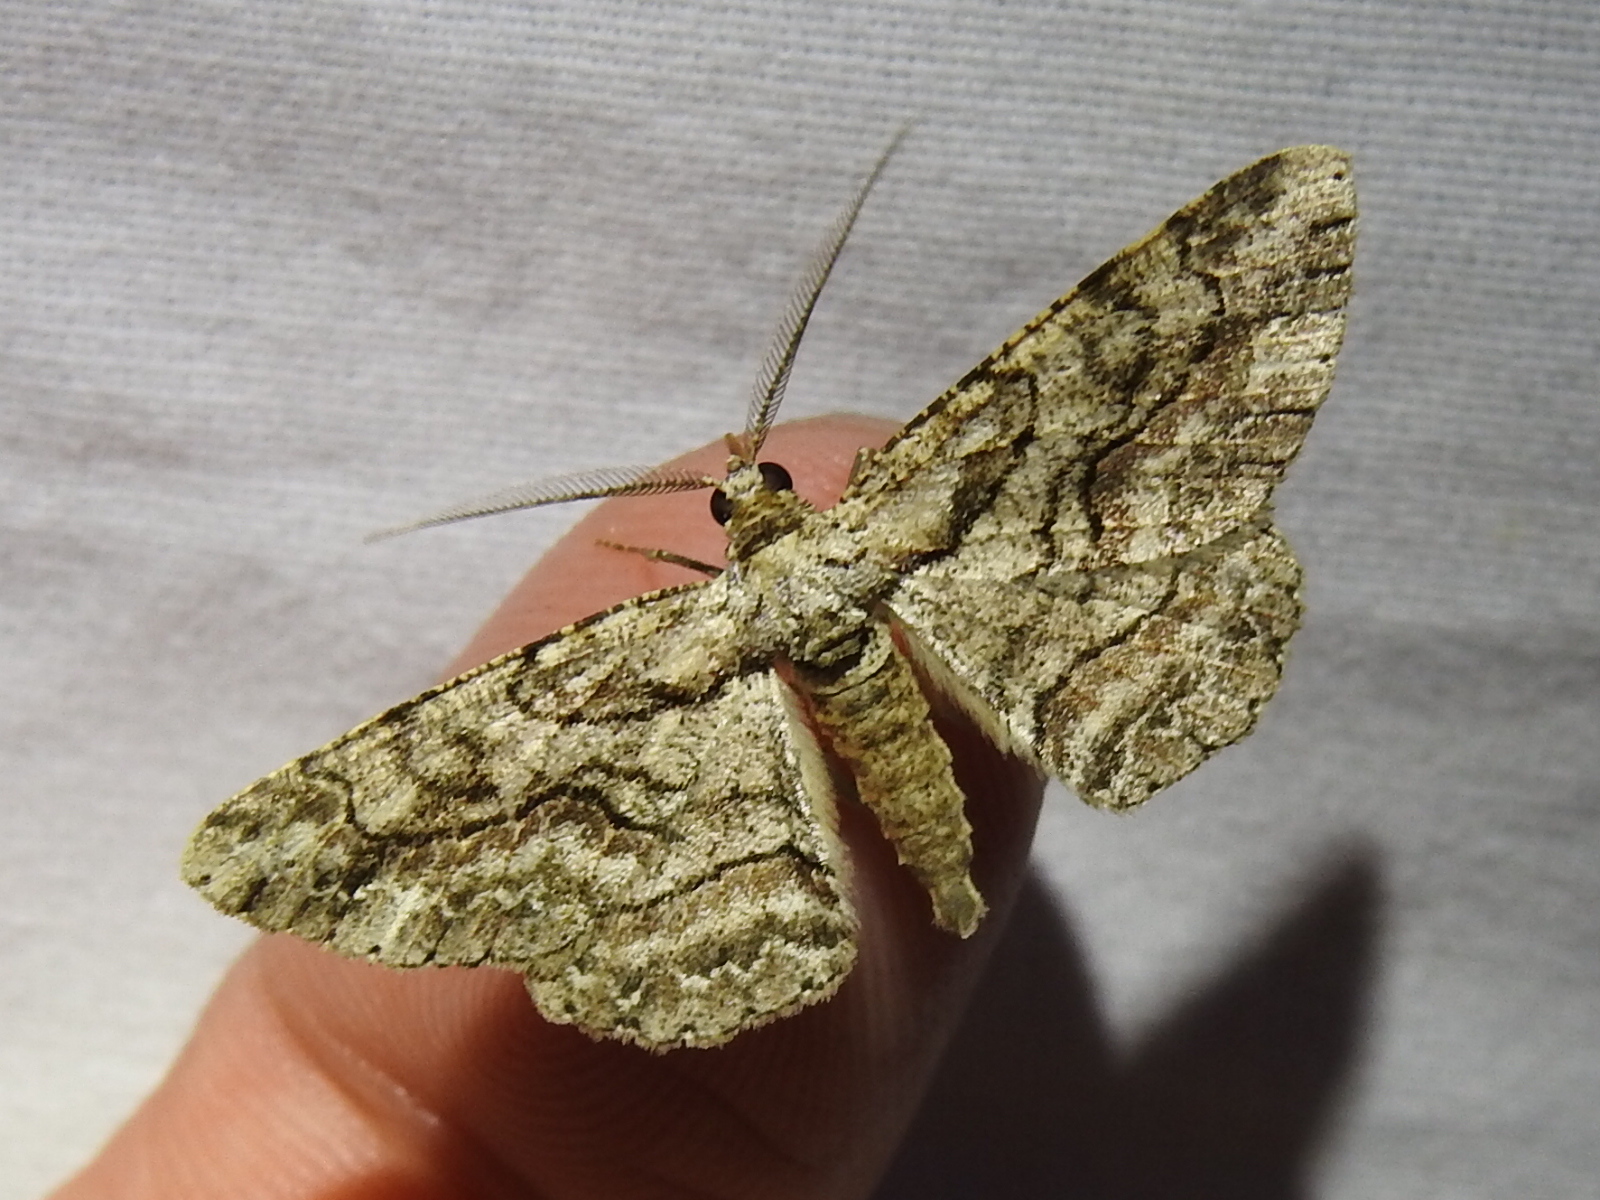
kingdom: Animalia
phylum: Arthropoda
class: Insecta
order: Lepidoptera
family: Geometridae
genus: Anavitrinella
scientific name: Anavitrinella pampinaria
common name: Common gray
